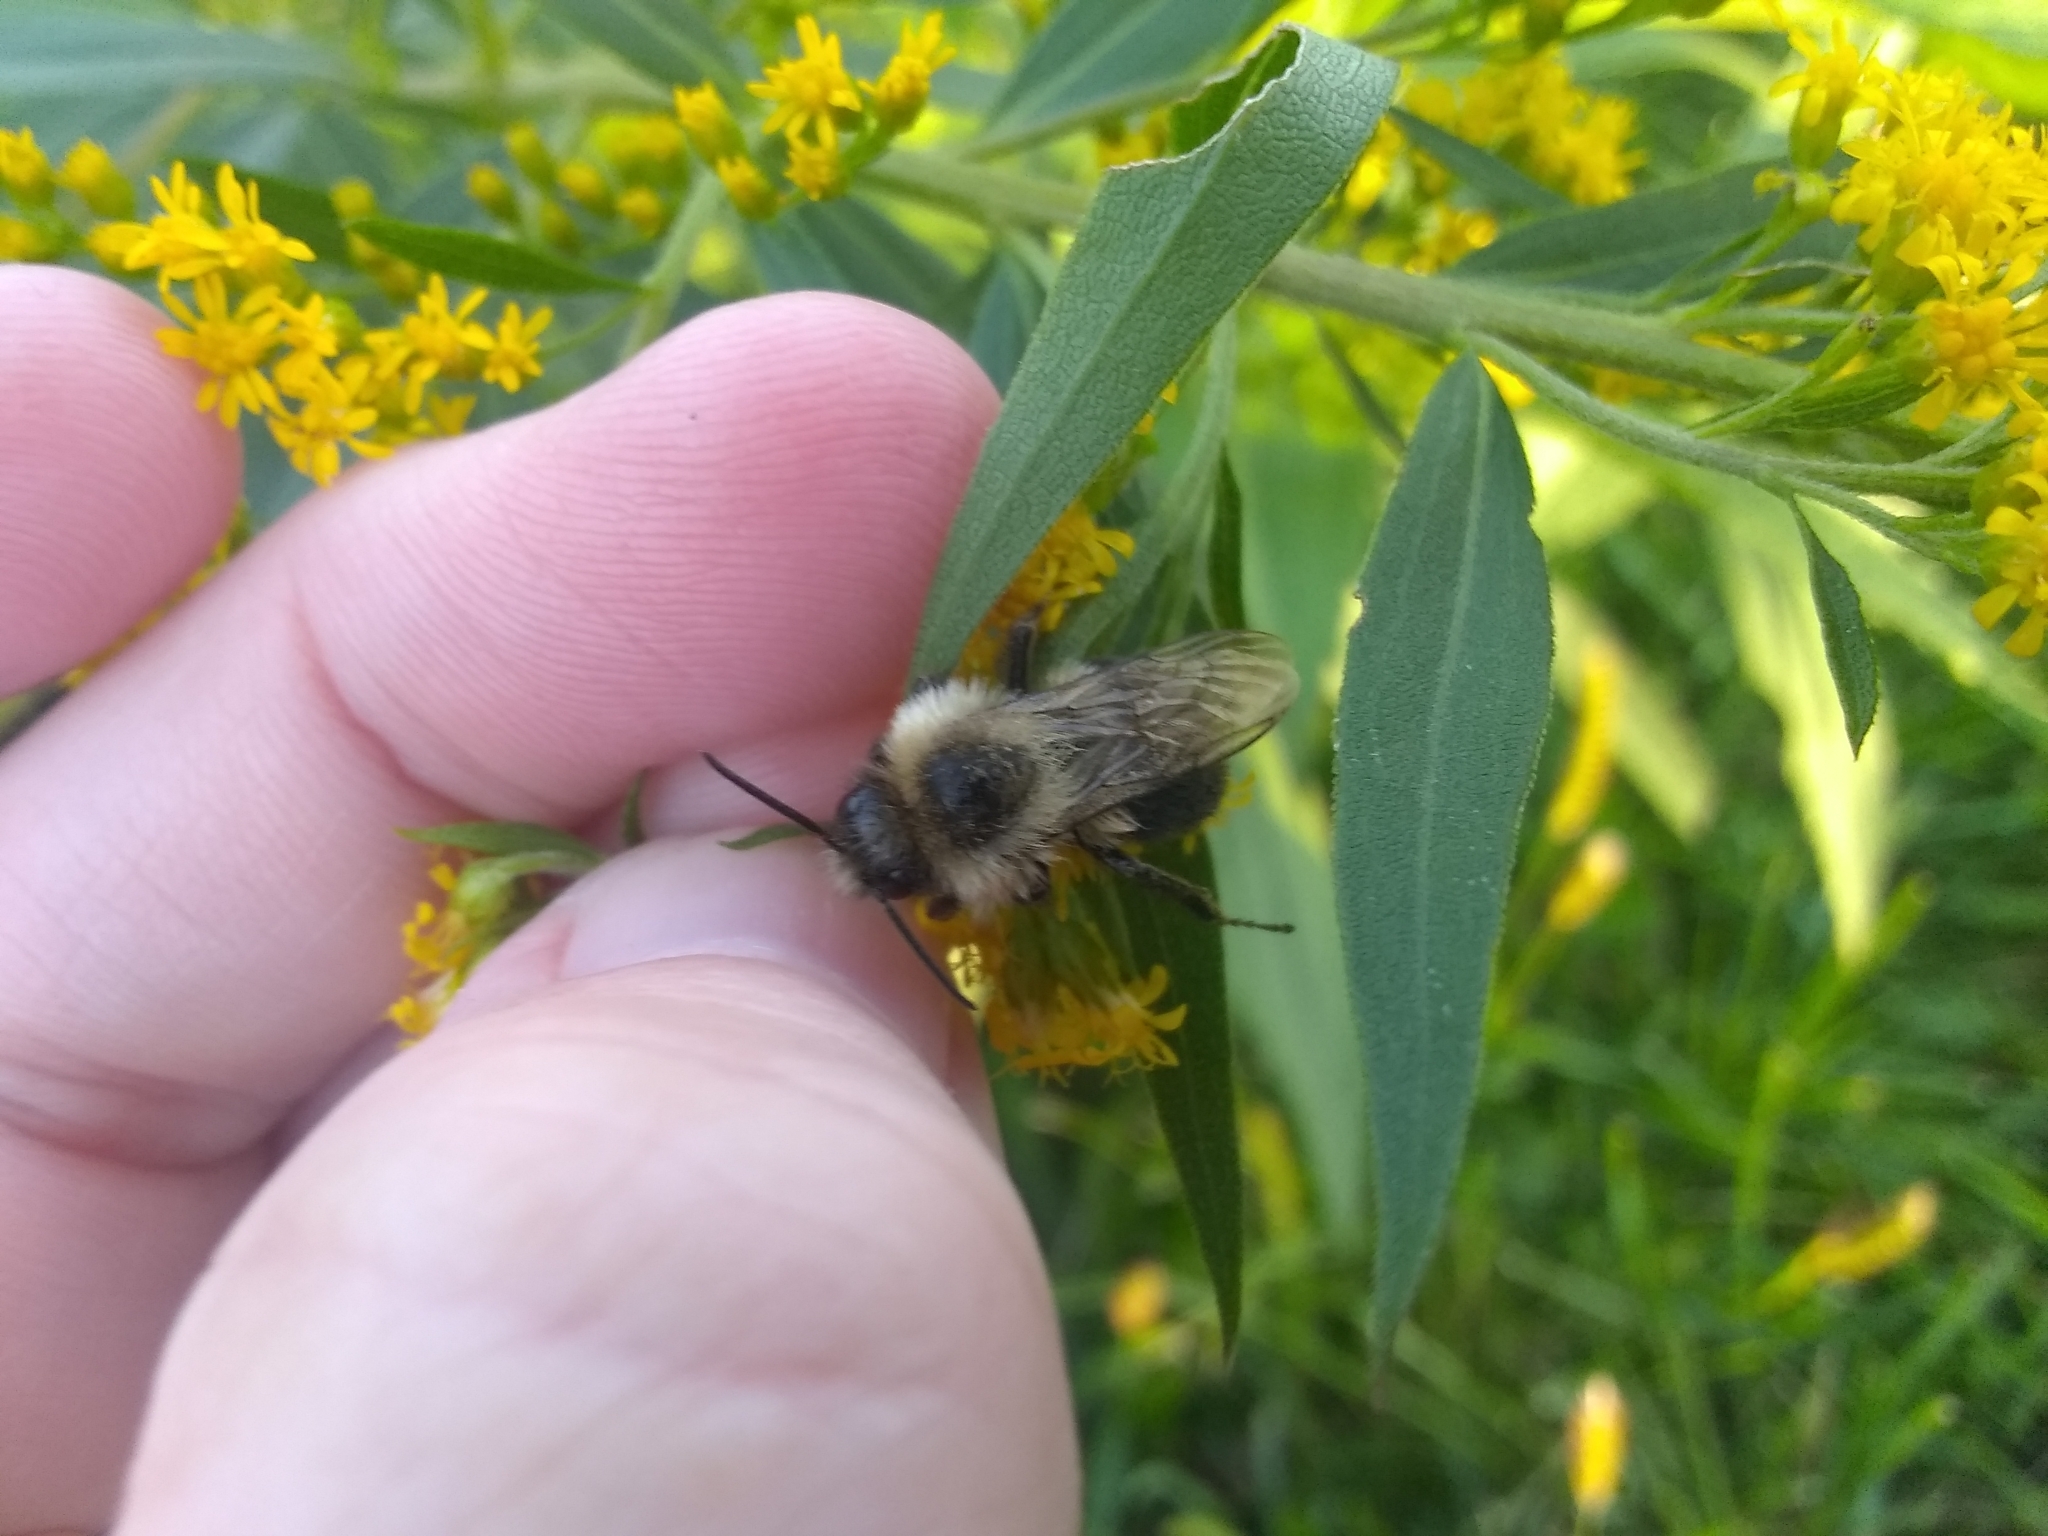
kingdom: Animalia
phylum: Arthropoda
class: Insecta
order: Hymenoptera
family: Apidae
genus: Bombus
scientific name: Bombus impatiens
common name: Common eastern bumble bee
